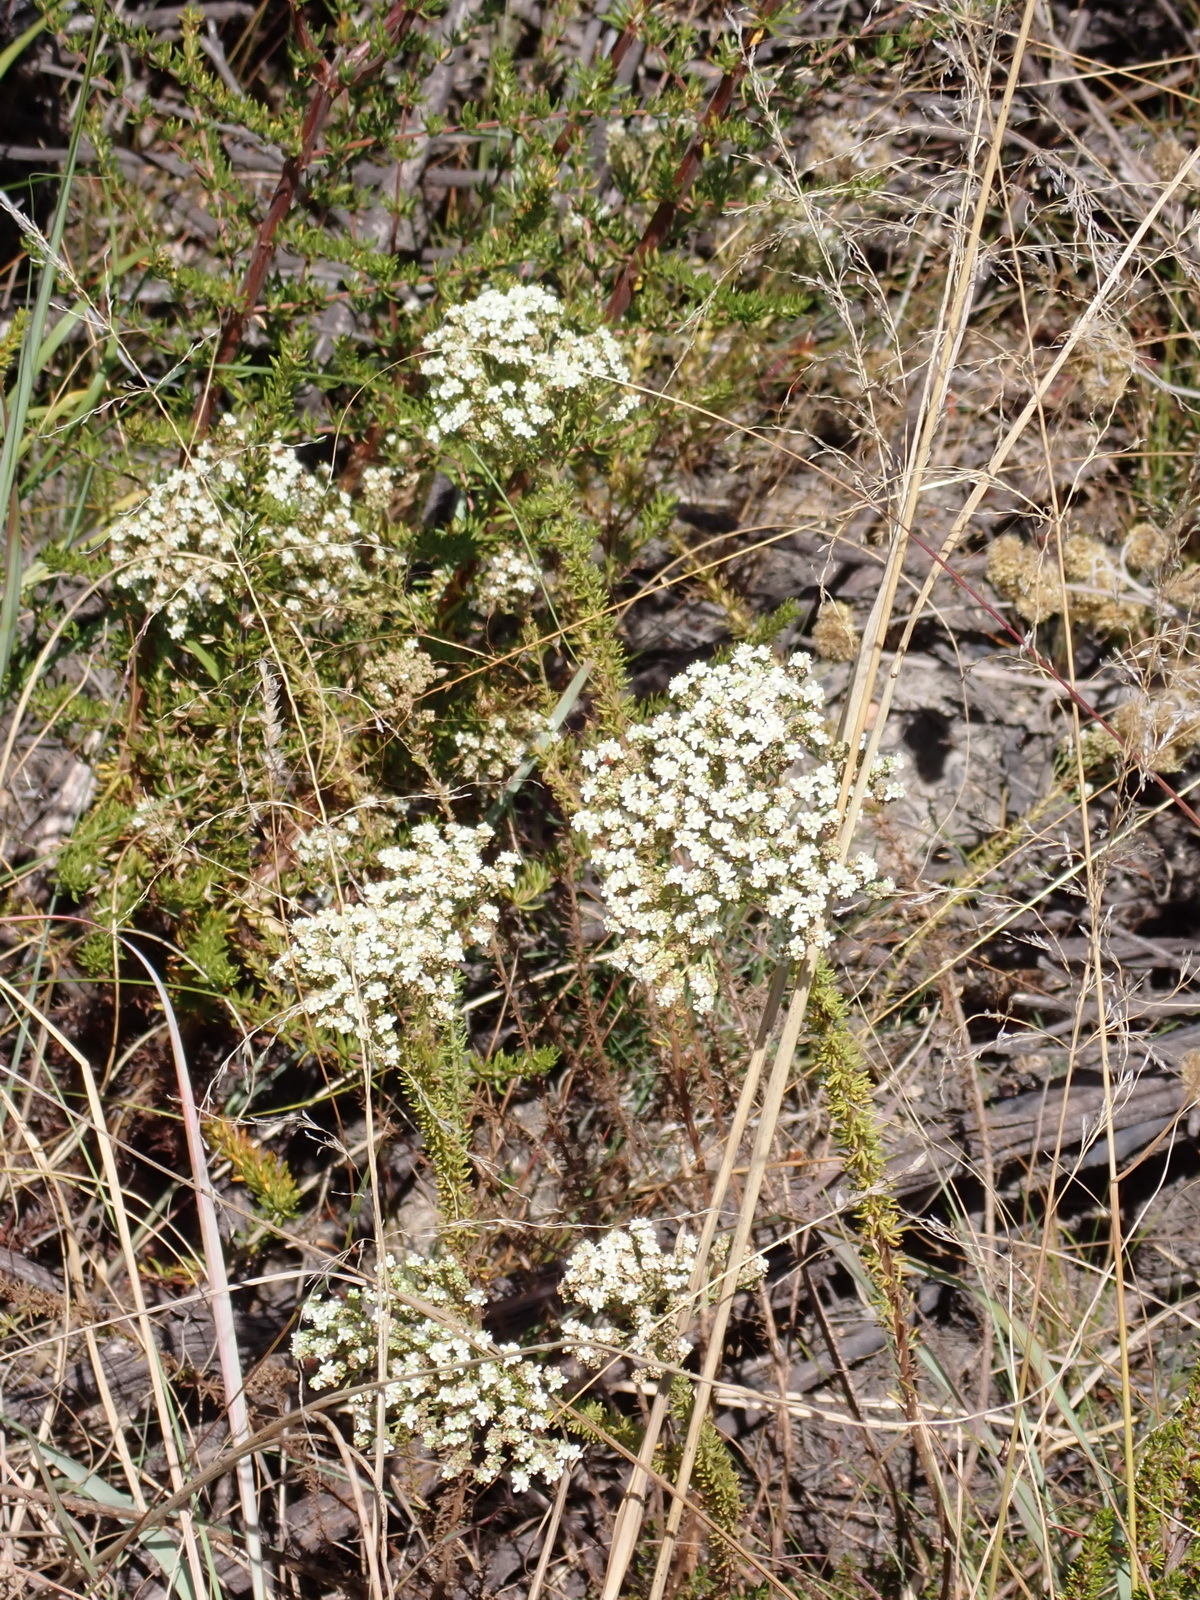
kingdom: Plantae
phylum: Tracheophyta
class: Magnoliopsida
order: Lamiales
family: Scrophulariaceae
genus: Selago
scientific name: Selago corymbosa
